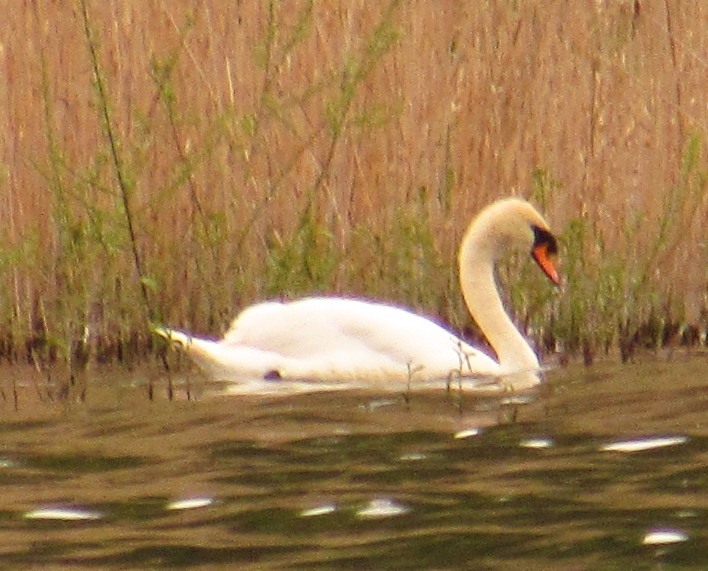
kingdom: Animalia
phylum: Chordata
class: Aves
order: Anseriformes
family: Anatidae
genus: Cygnus
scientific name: Cygnus olor
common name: Mute swan
